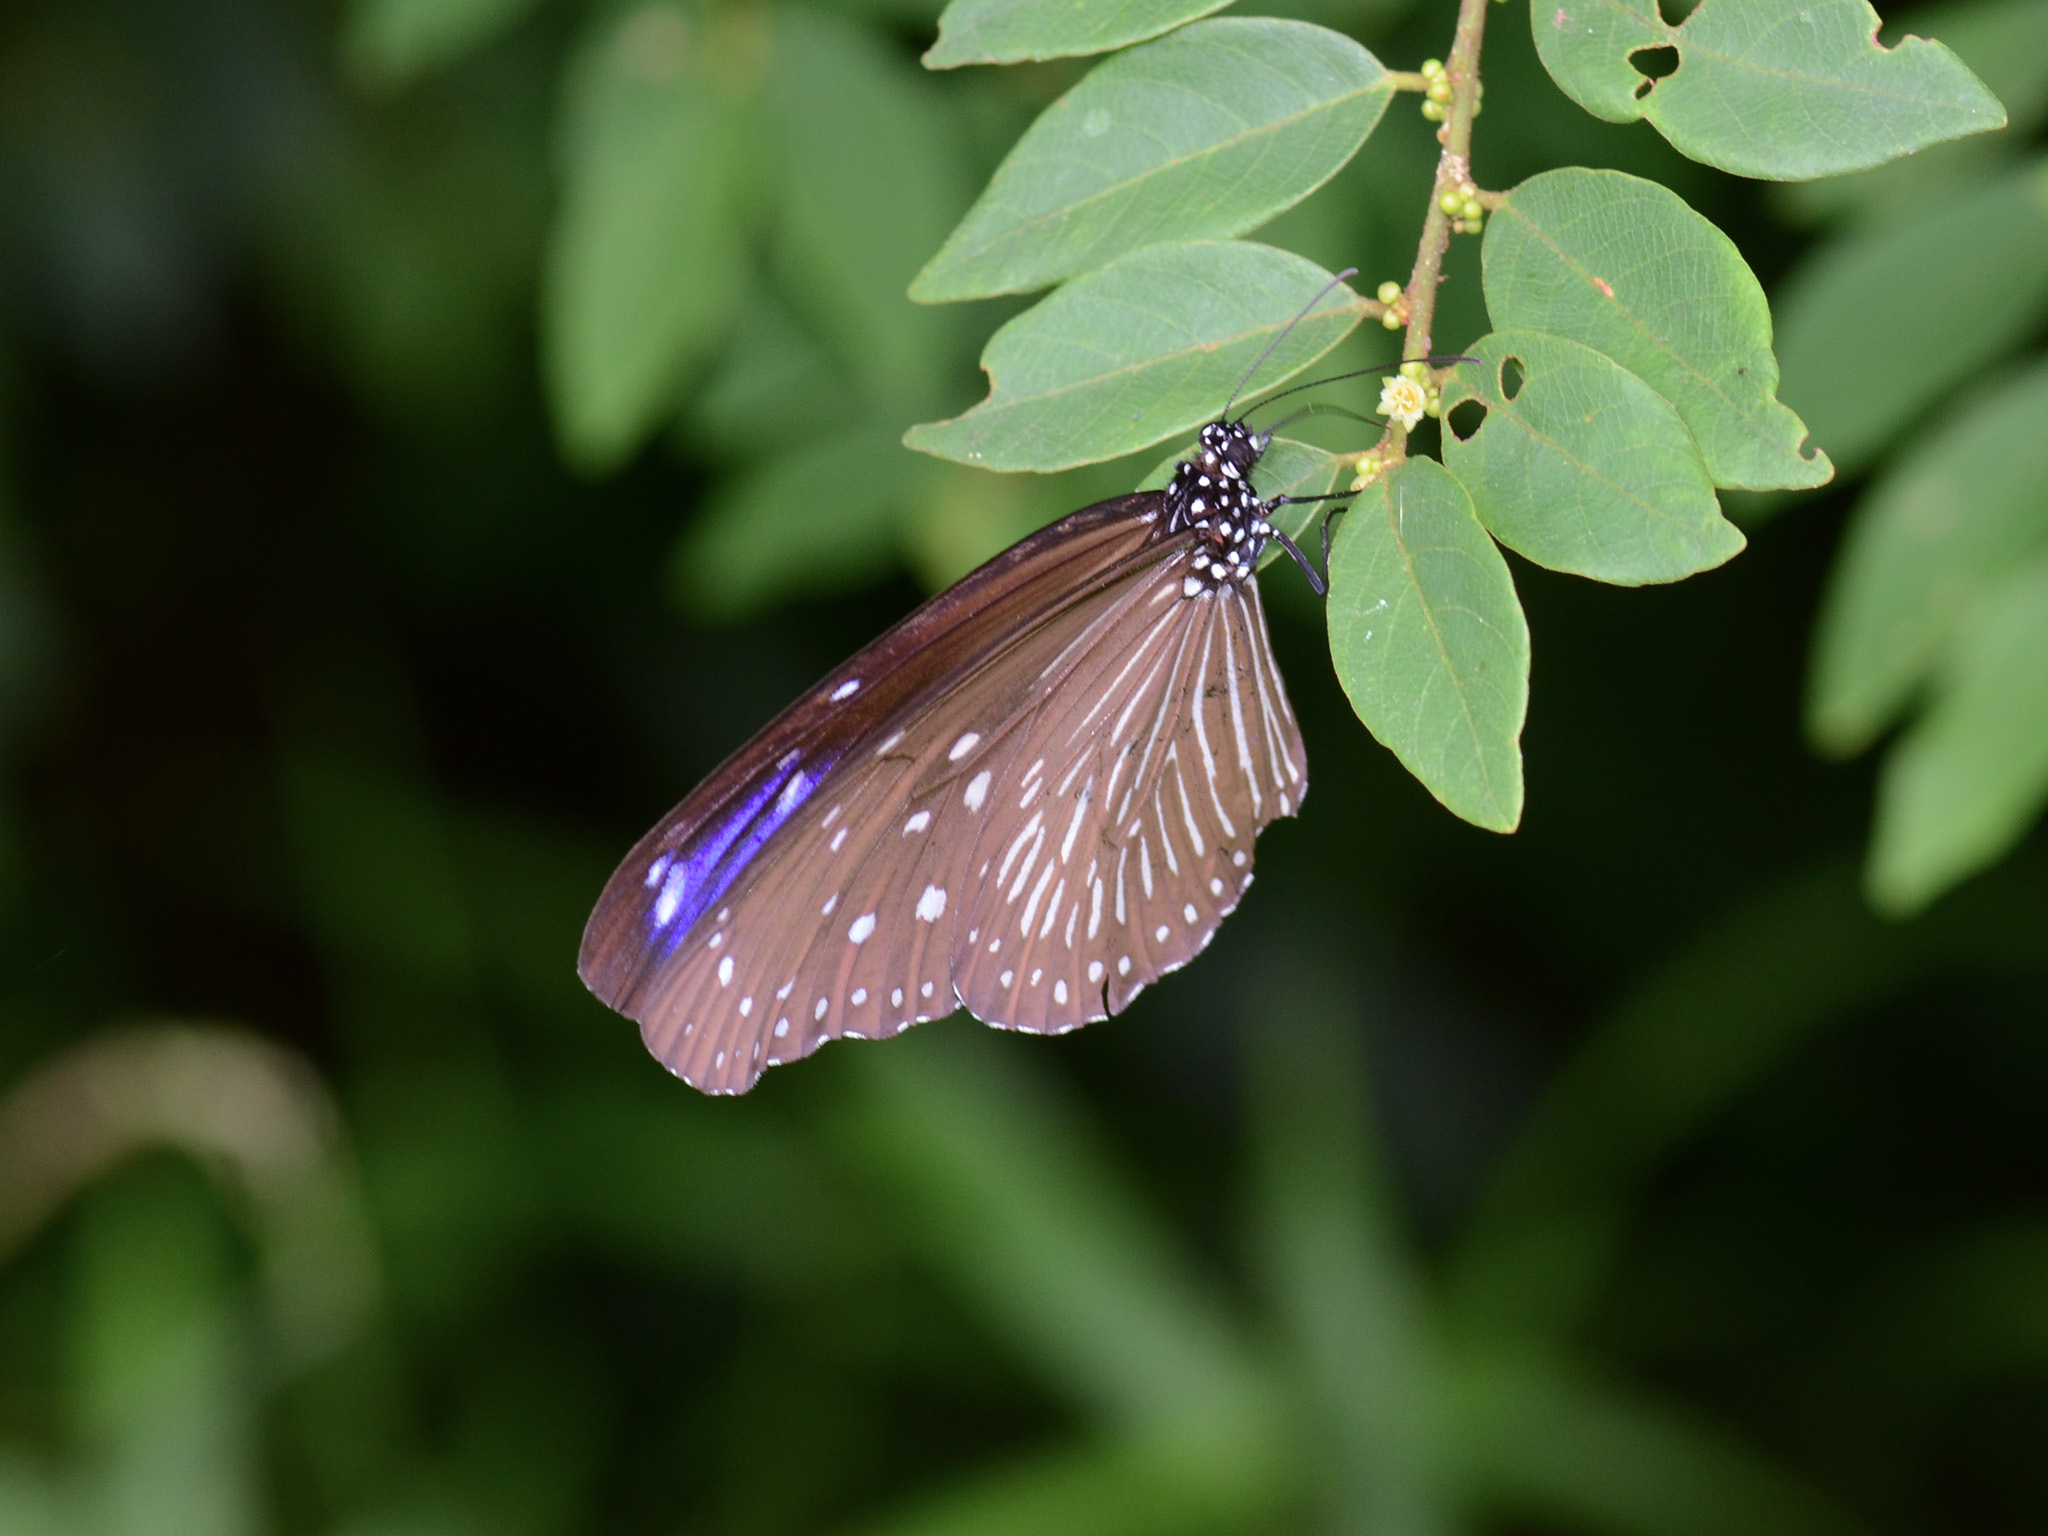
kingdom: Animalia
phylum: Arthropoda
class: Insecta
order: Lepidoptera
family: Nymphalidae
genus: Euploea
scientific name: Euploea mulciber
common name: Striped blue crow butterfly
